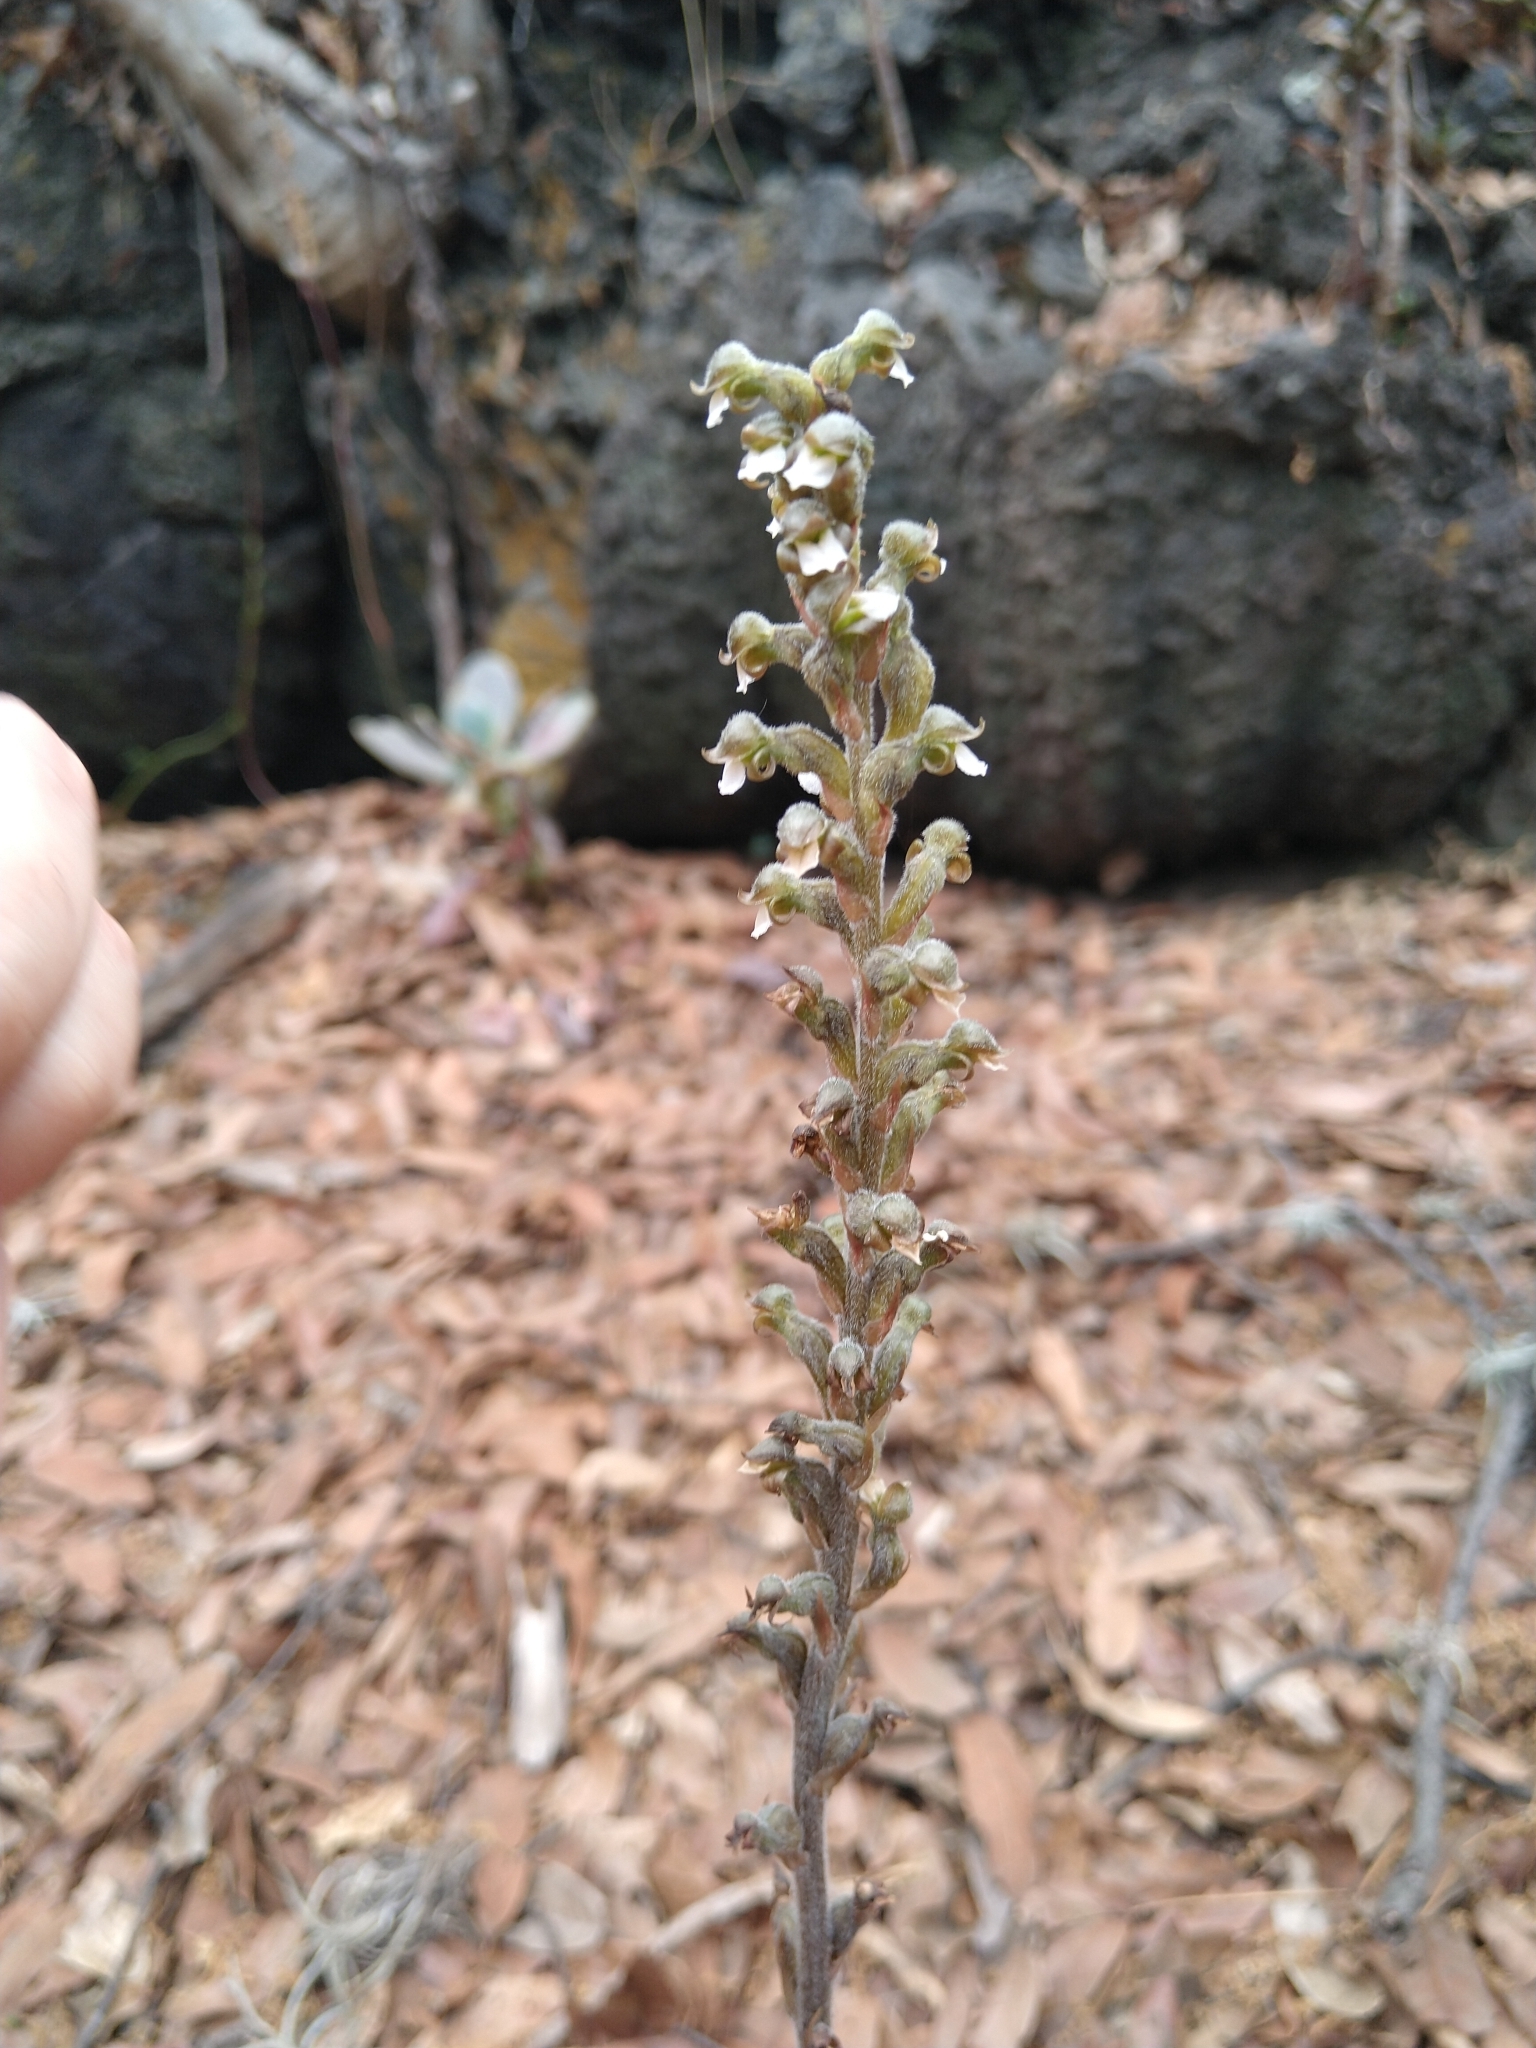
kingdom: Plantae
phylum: Tracheophyta
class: Liliopsida
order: Asparagales
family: Orchidaceae
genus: Sarcoglottis
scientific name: Sarcoglottis schaffneri
